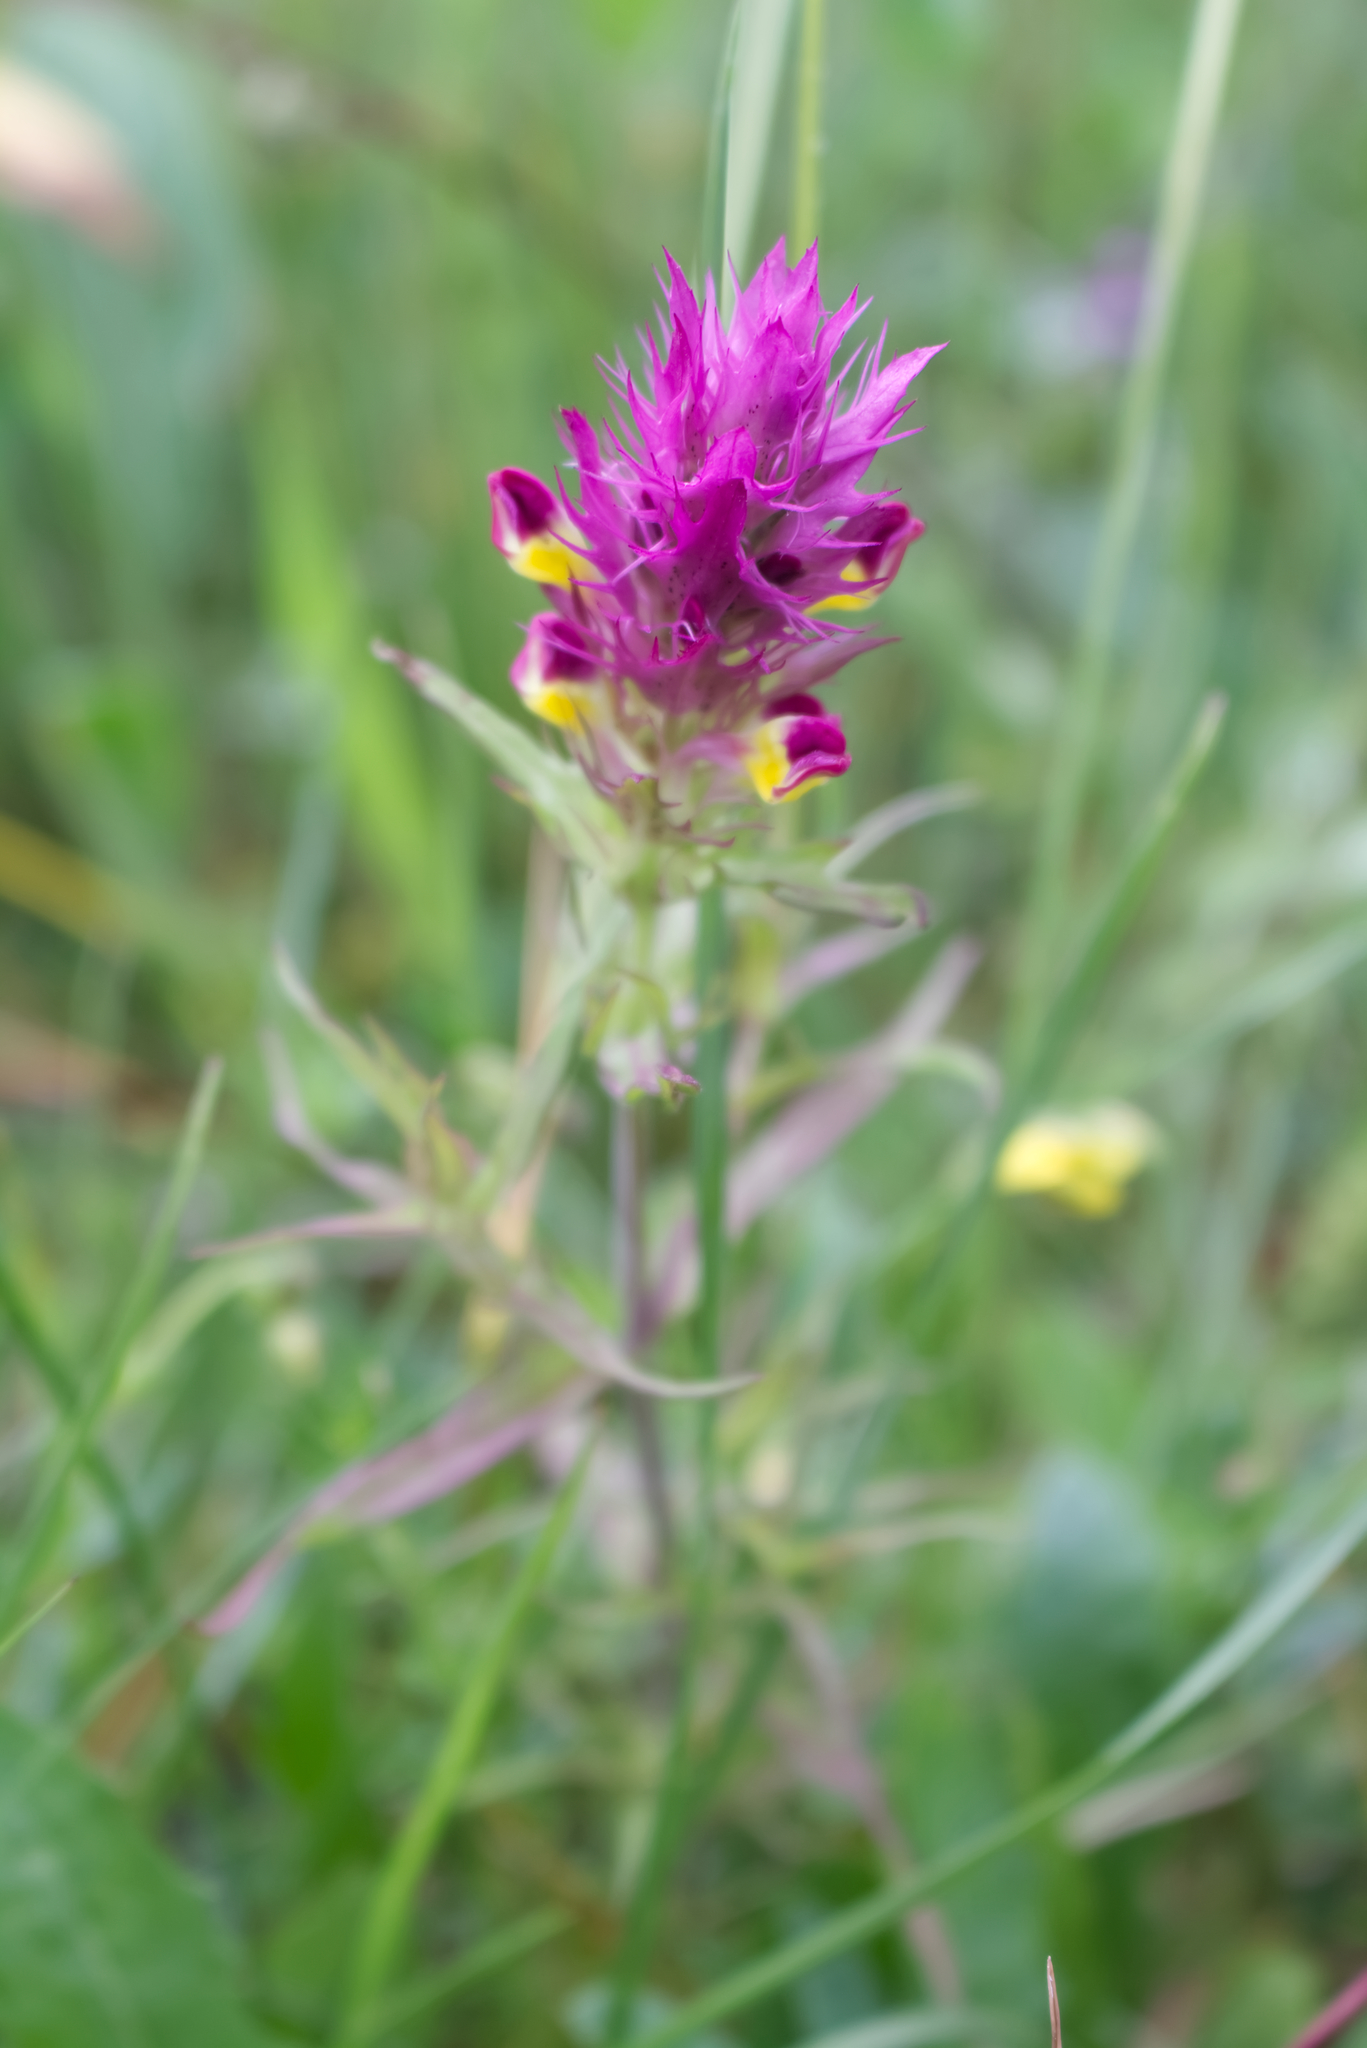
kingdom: Plantae
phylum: Tracheophyta
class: Magnoliopsida
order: Lamiales
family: Orobanchaceae
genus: Melampyrum
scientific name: Melampyrum arvense
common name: Field cow-wheat
